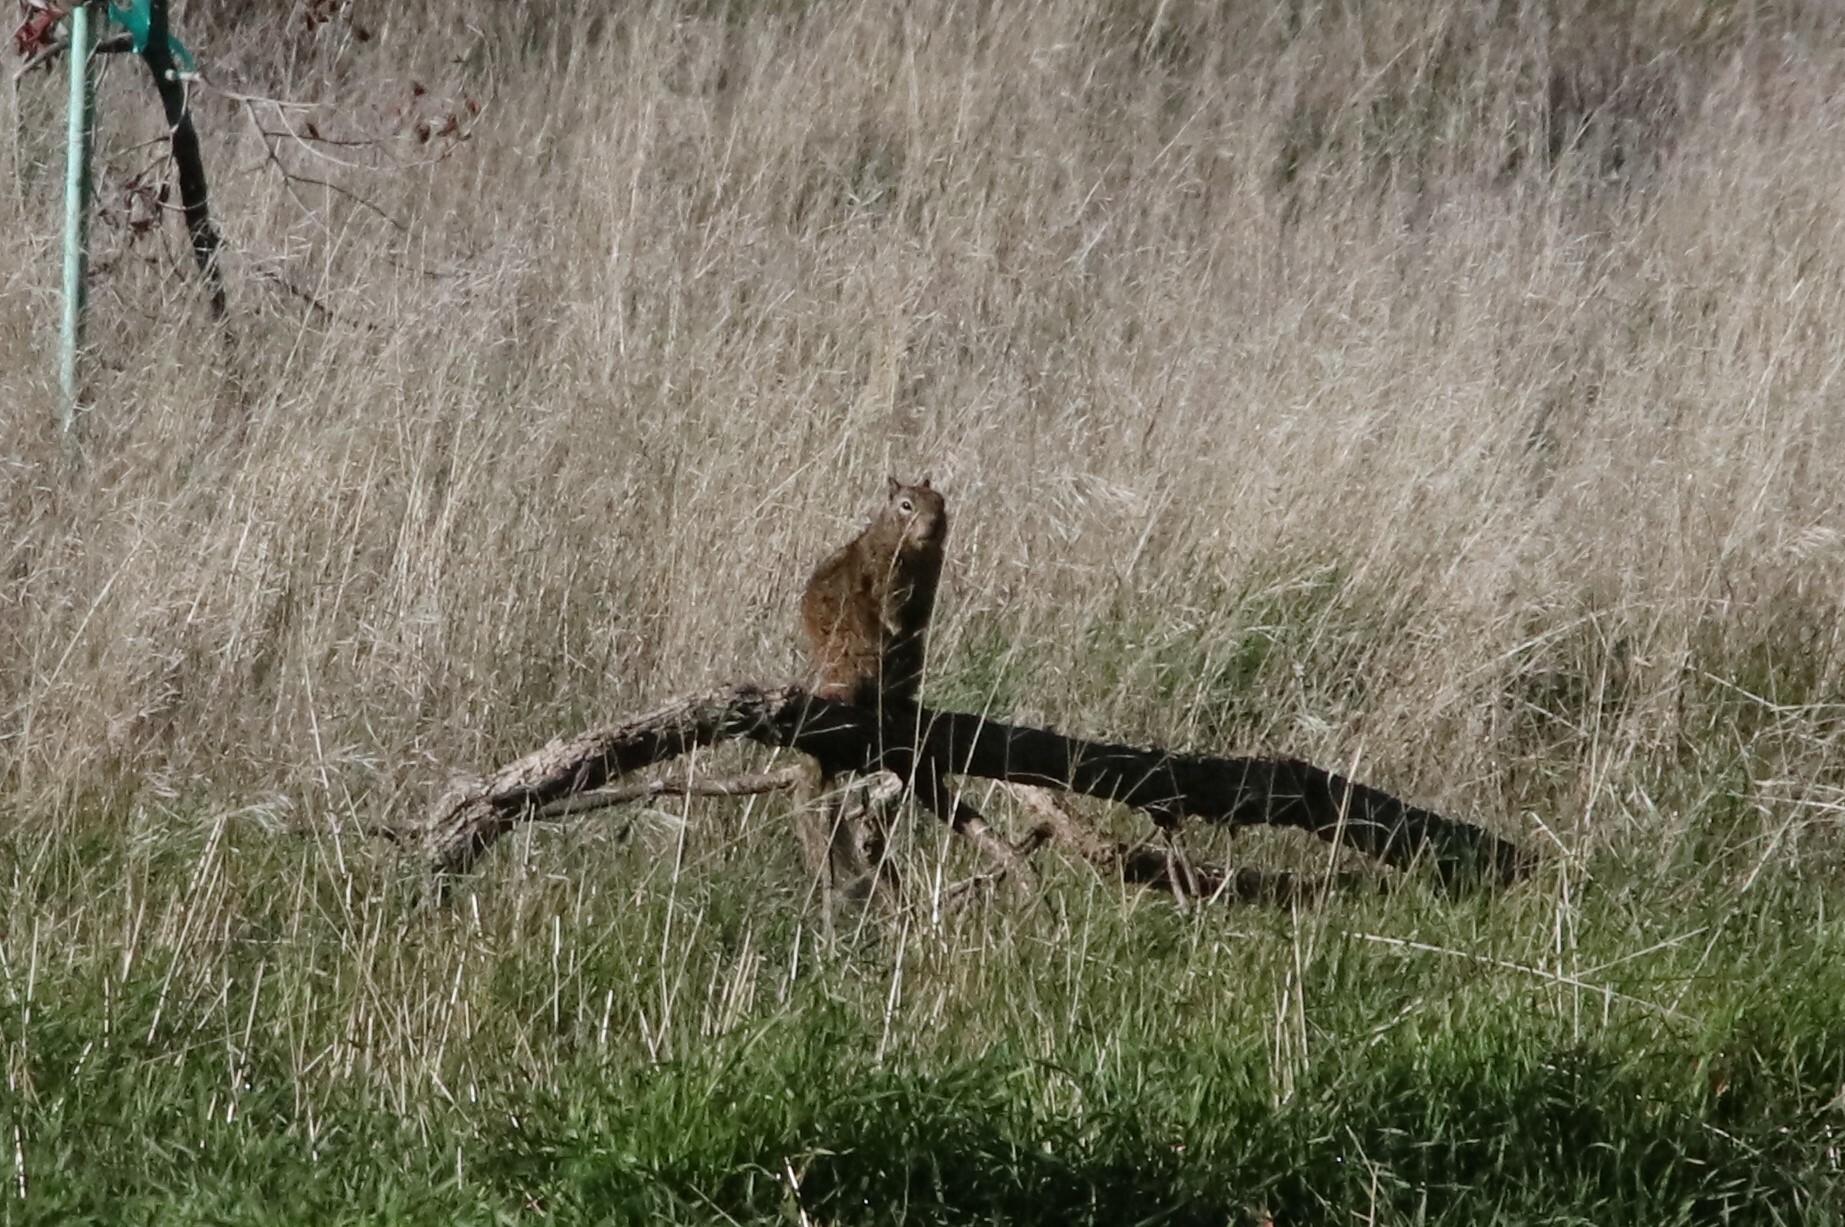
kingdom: Animalia
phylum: Chordata
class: Mammalia
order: Rodentia
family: Sciuridae
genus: Otospermophilus
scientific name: Otospermophilus beecheyi
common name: California ground squirrel
